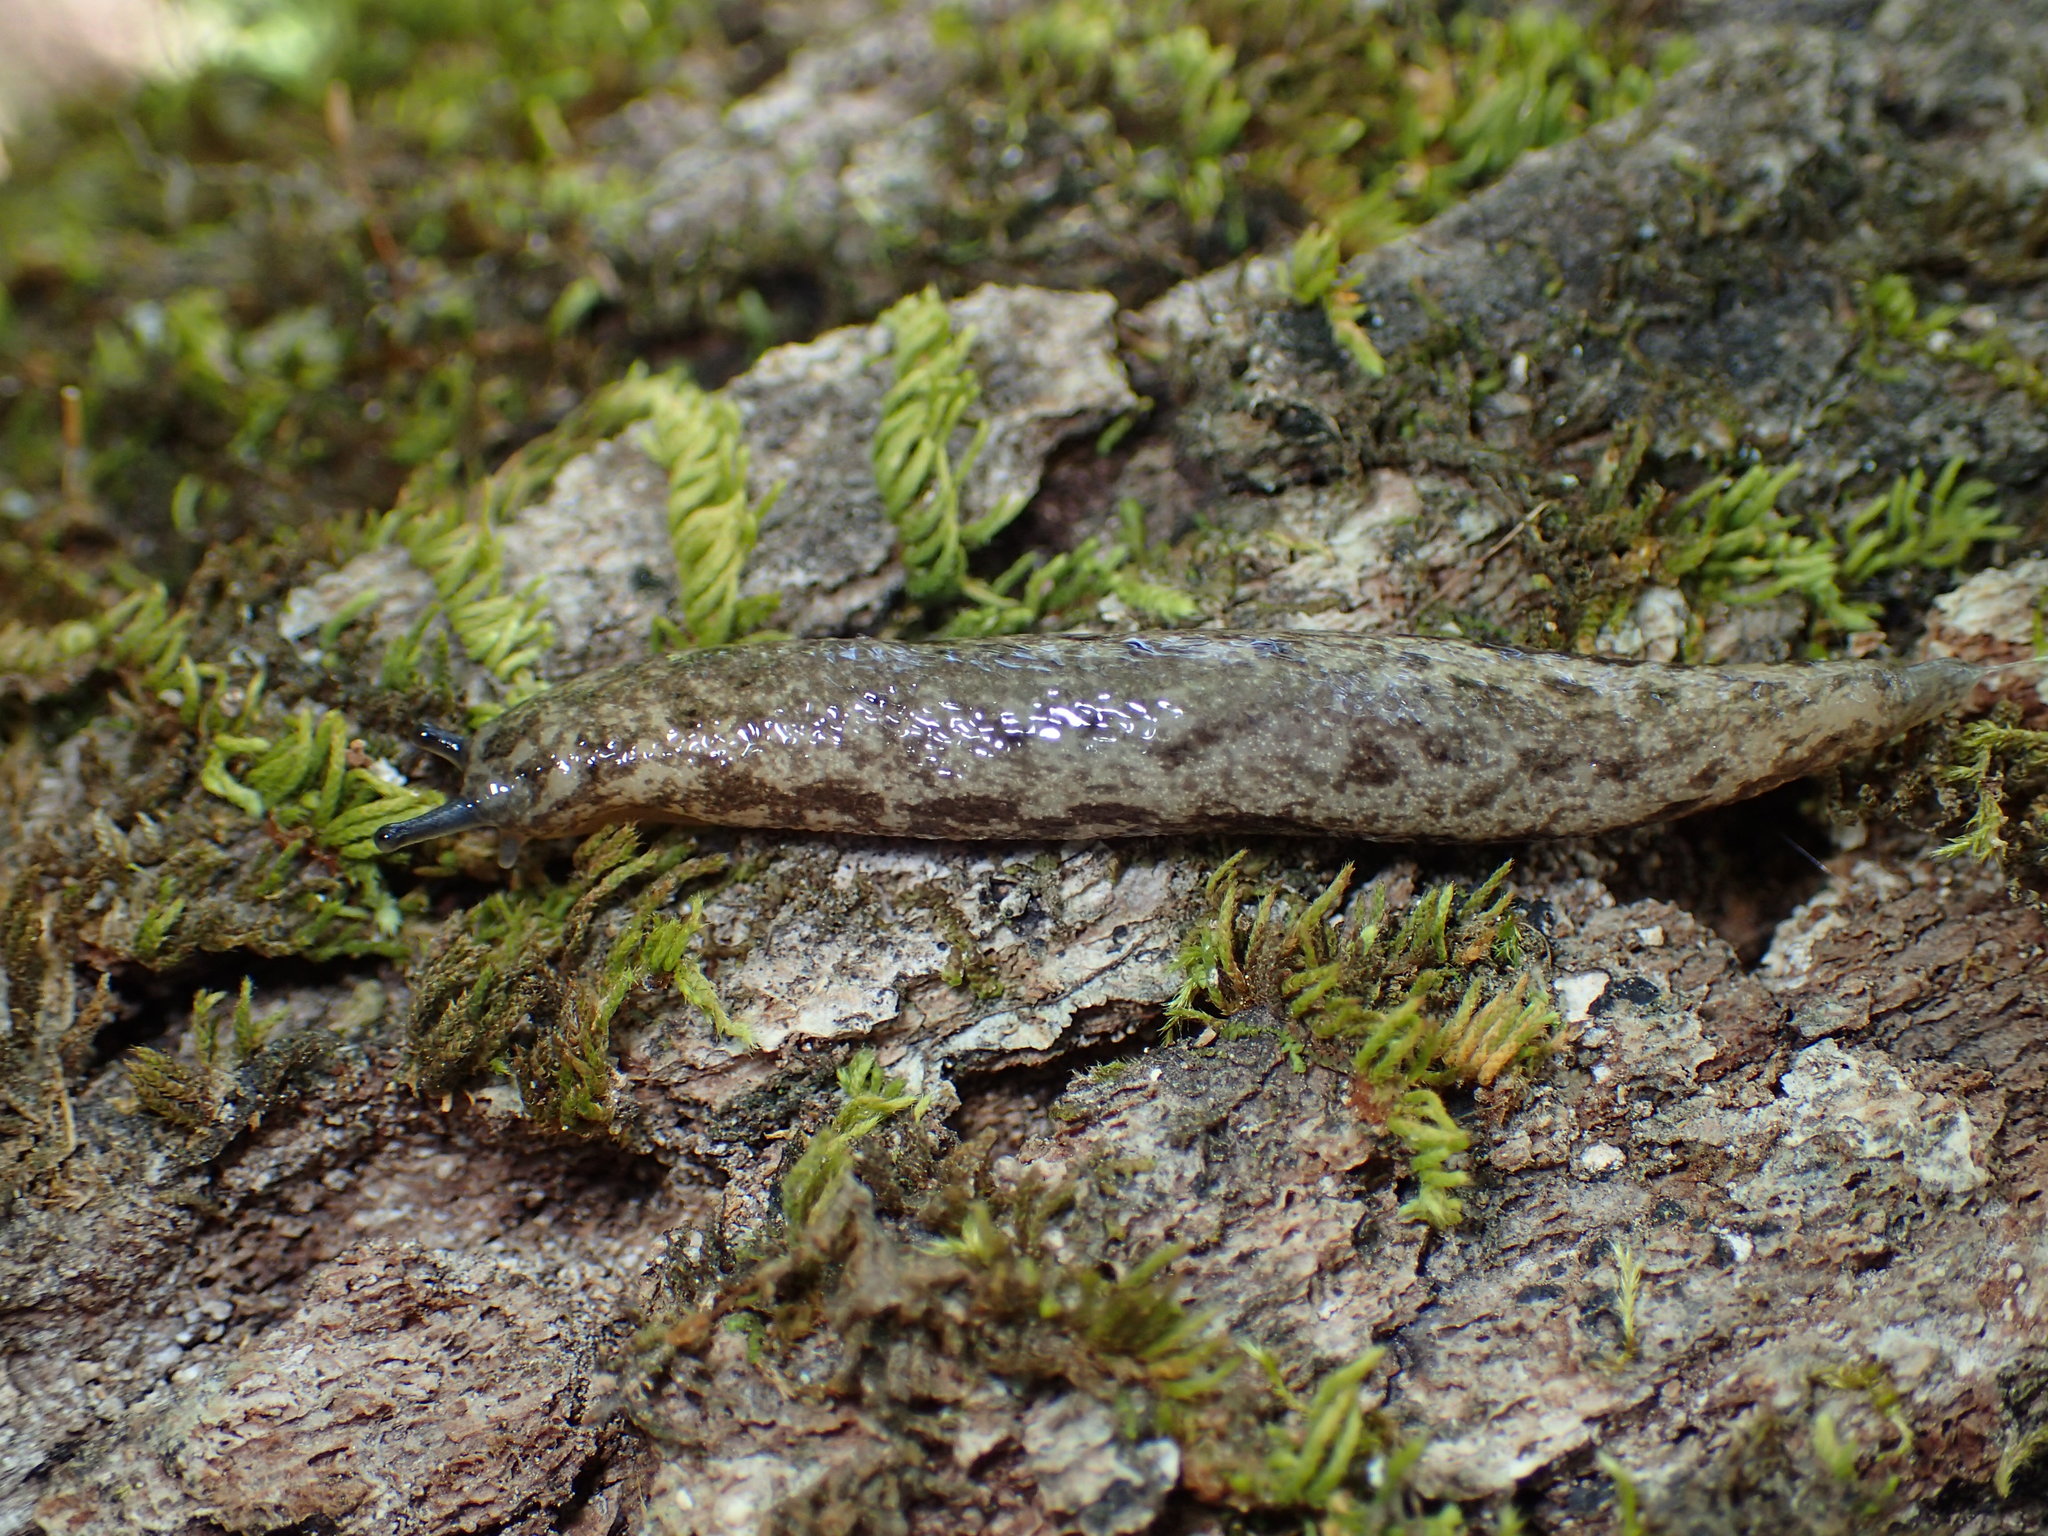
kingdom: Animalia
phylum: Mollusca
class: Gastropoda
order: Stylommatophora
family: Philomycidae
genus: Megapallifera
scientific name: Megapallifera mutabilis
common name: Changeable mantleslug
